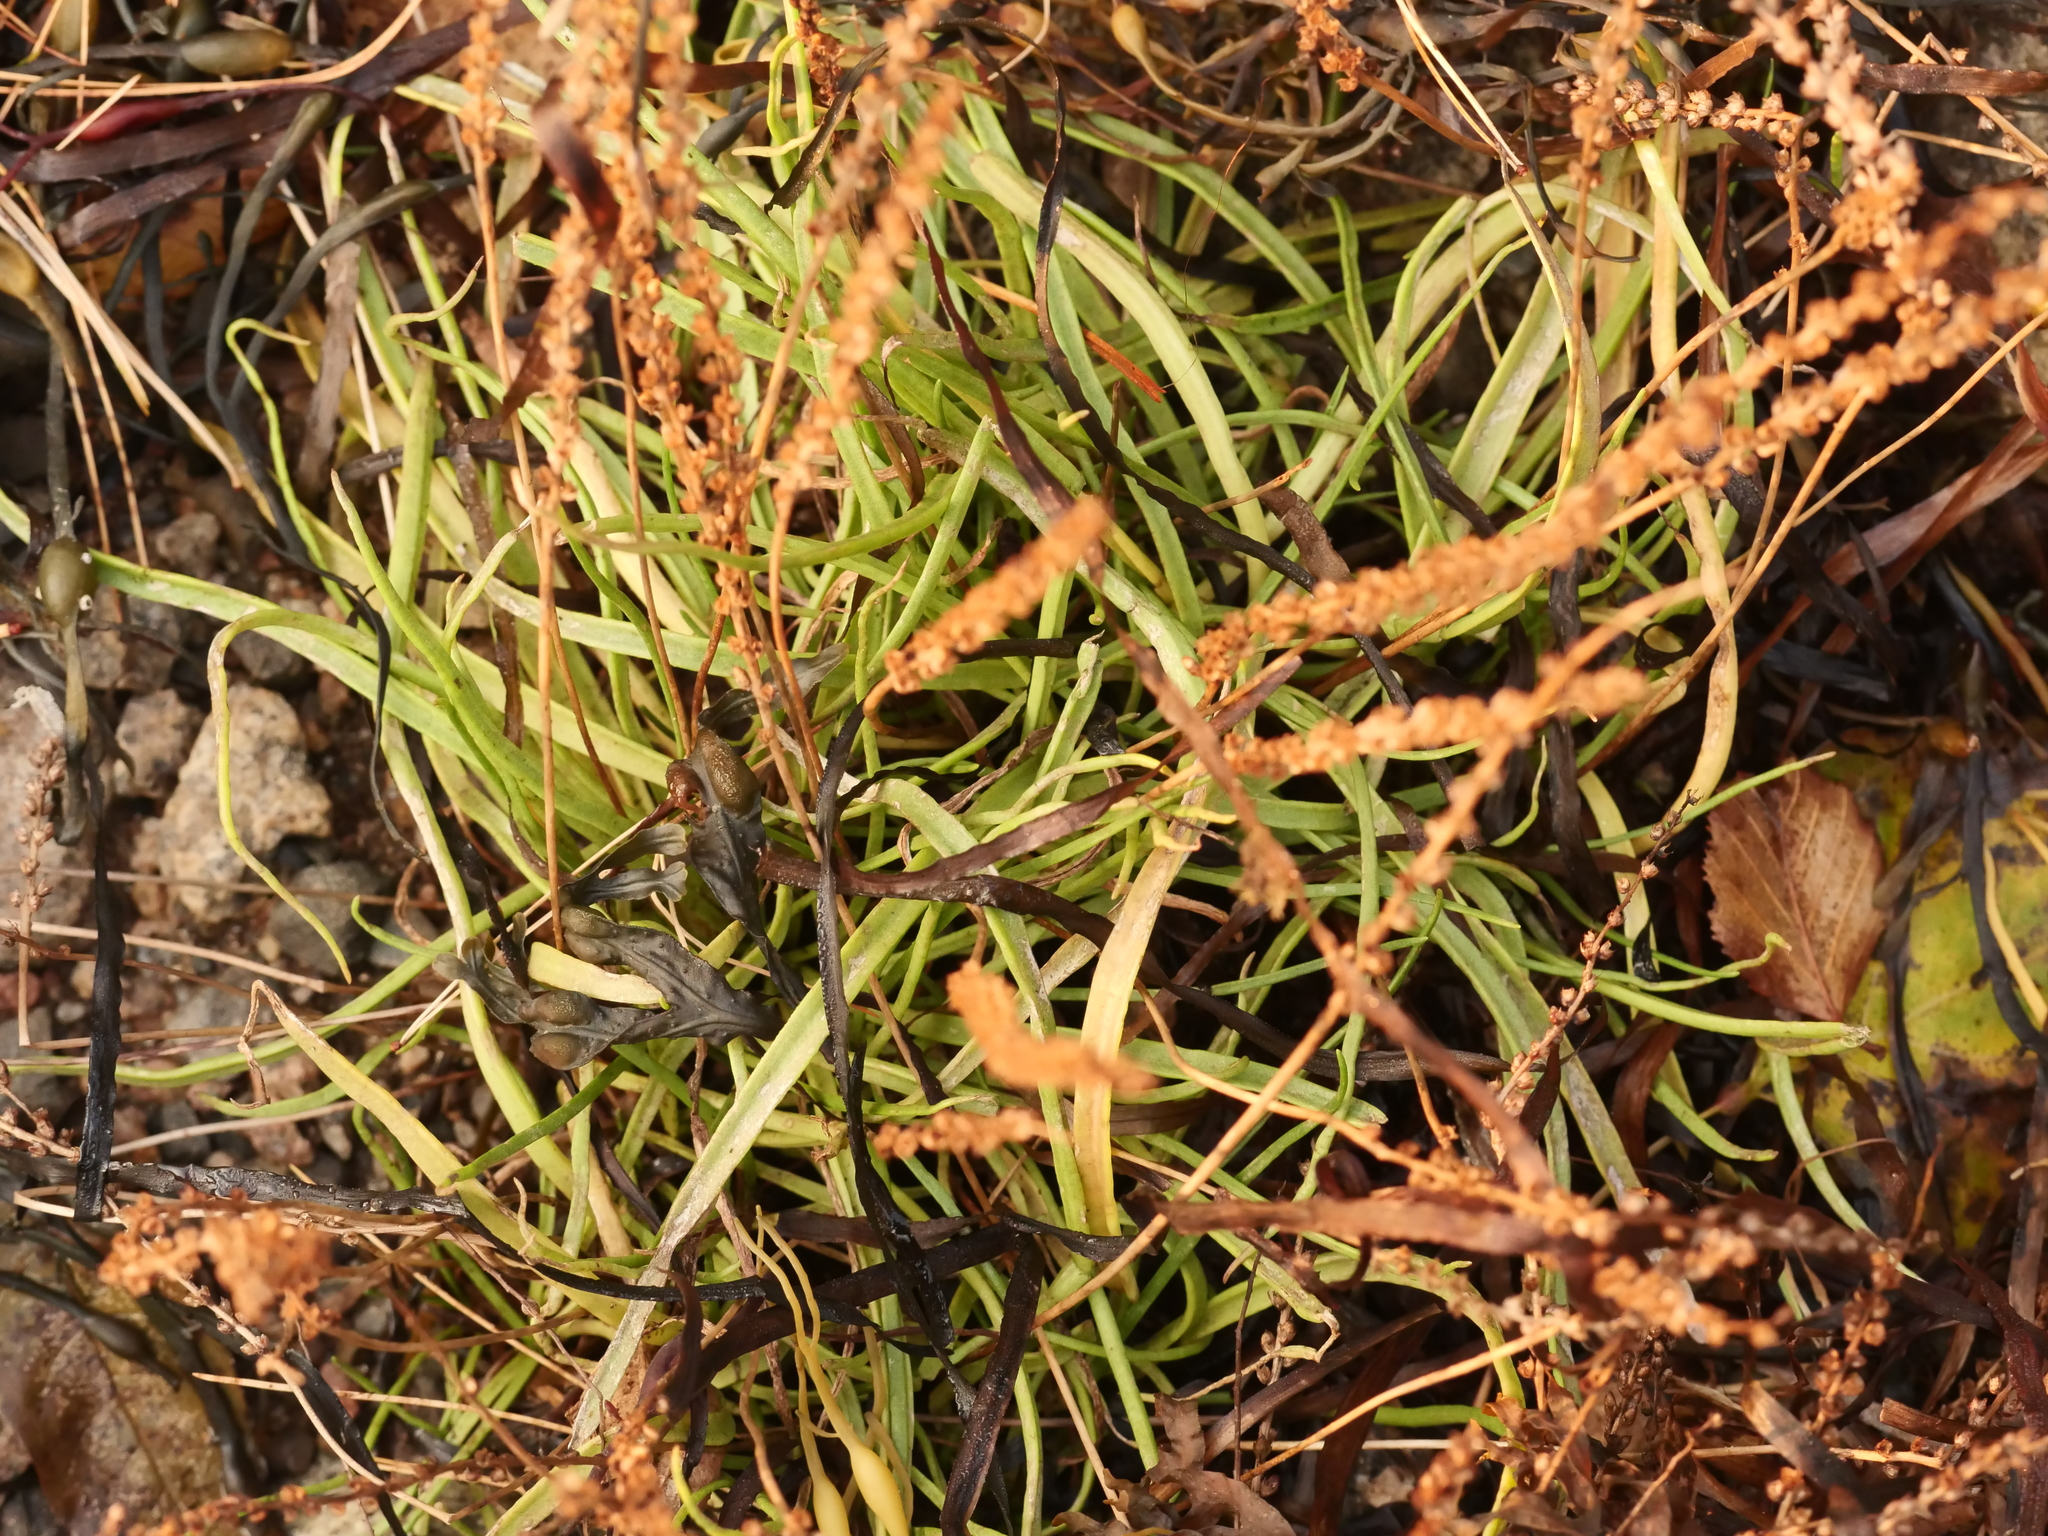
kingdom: Plantae
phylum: Tracheophyta
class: Magnoliopsida
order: Lamiales
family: Plantaginaceae
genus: Plantago
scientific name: Plantago maritima
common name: Sea plantain
